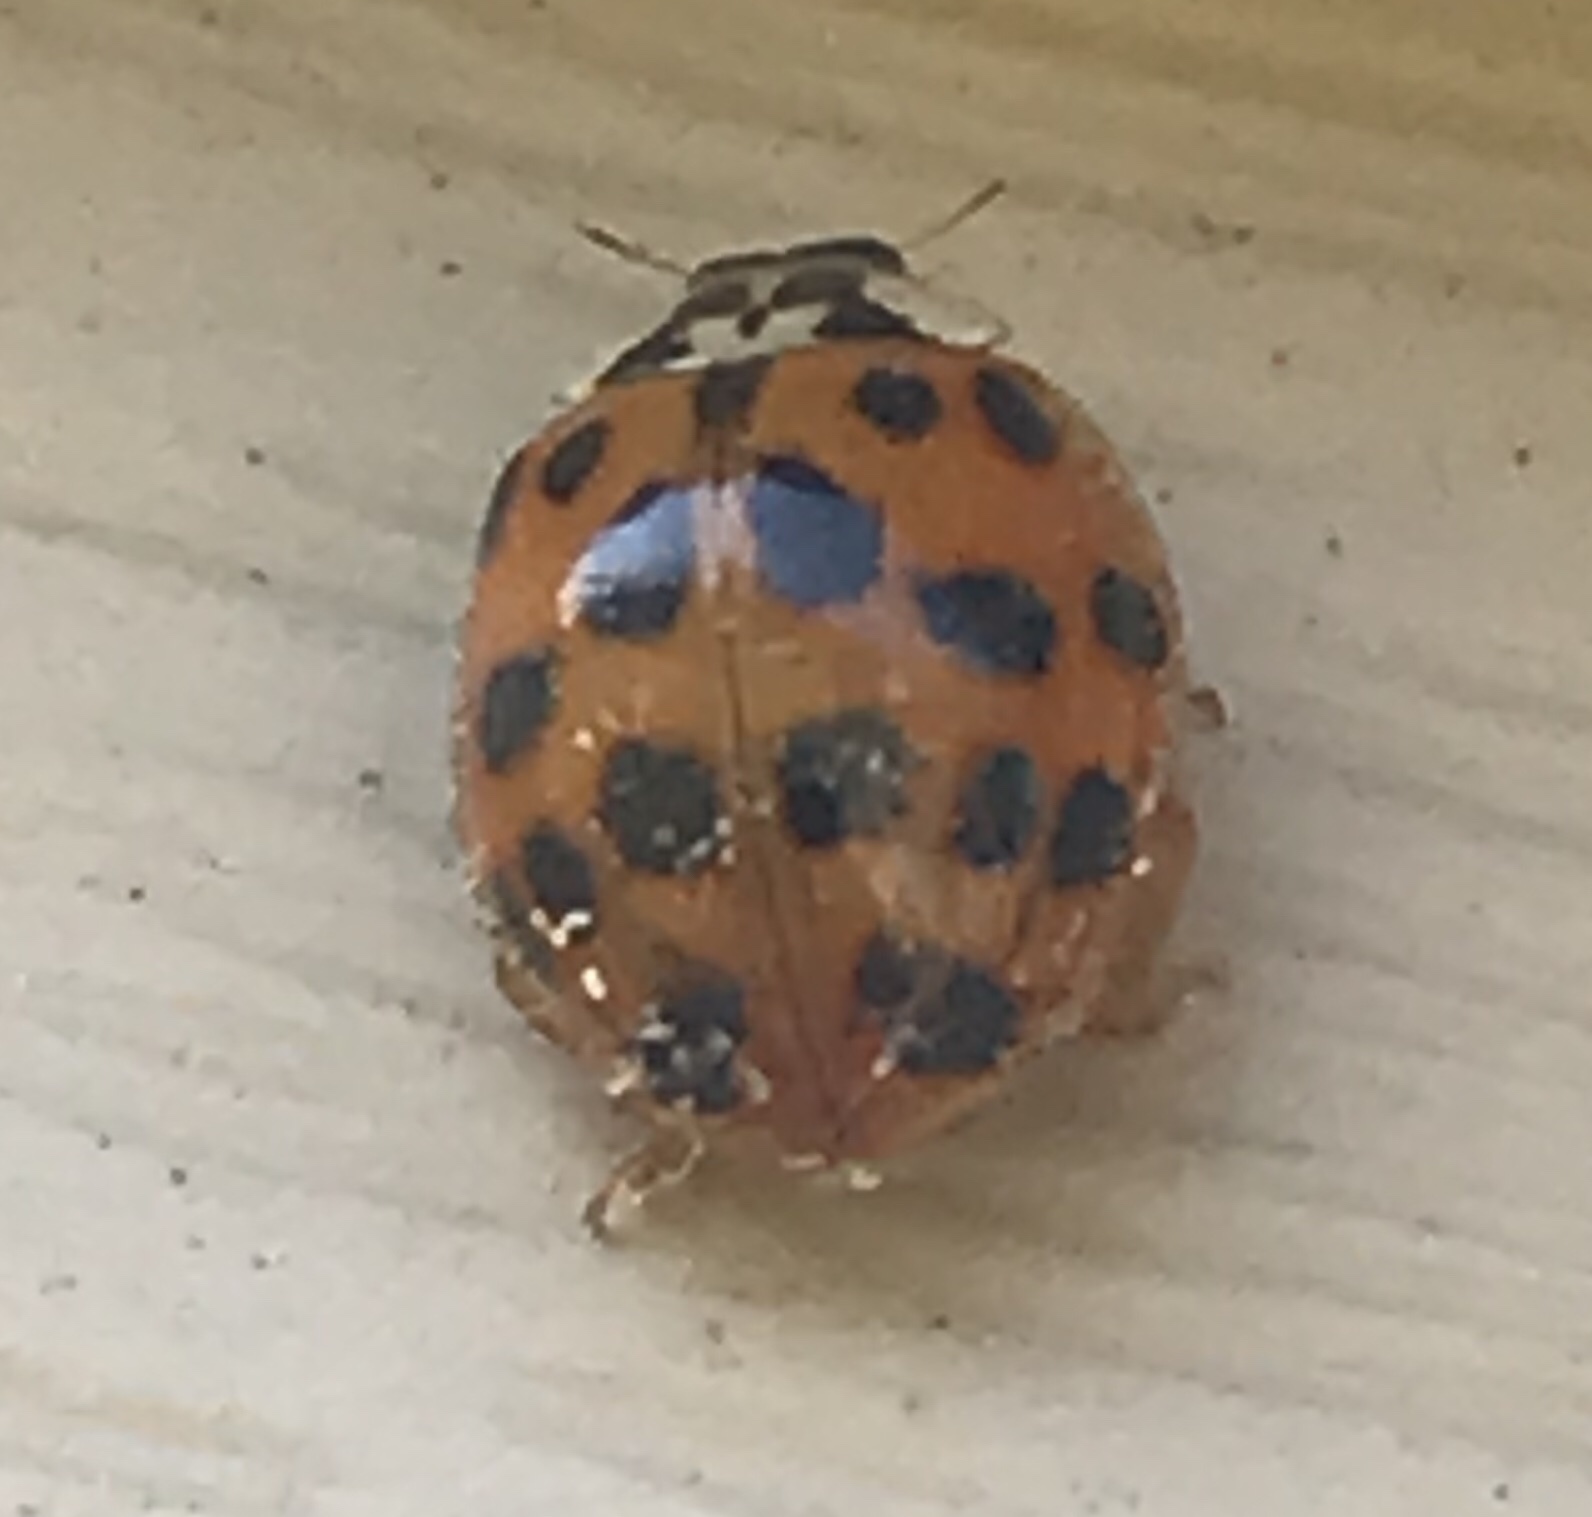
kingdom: Animalia
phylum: Arthropoda
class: Insecta
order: Coleoptera
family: Coccinellidae
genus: Harmonia
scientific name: Harmonia axyridis
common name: Harlequin ladybird
